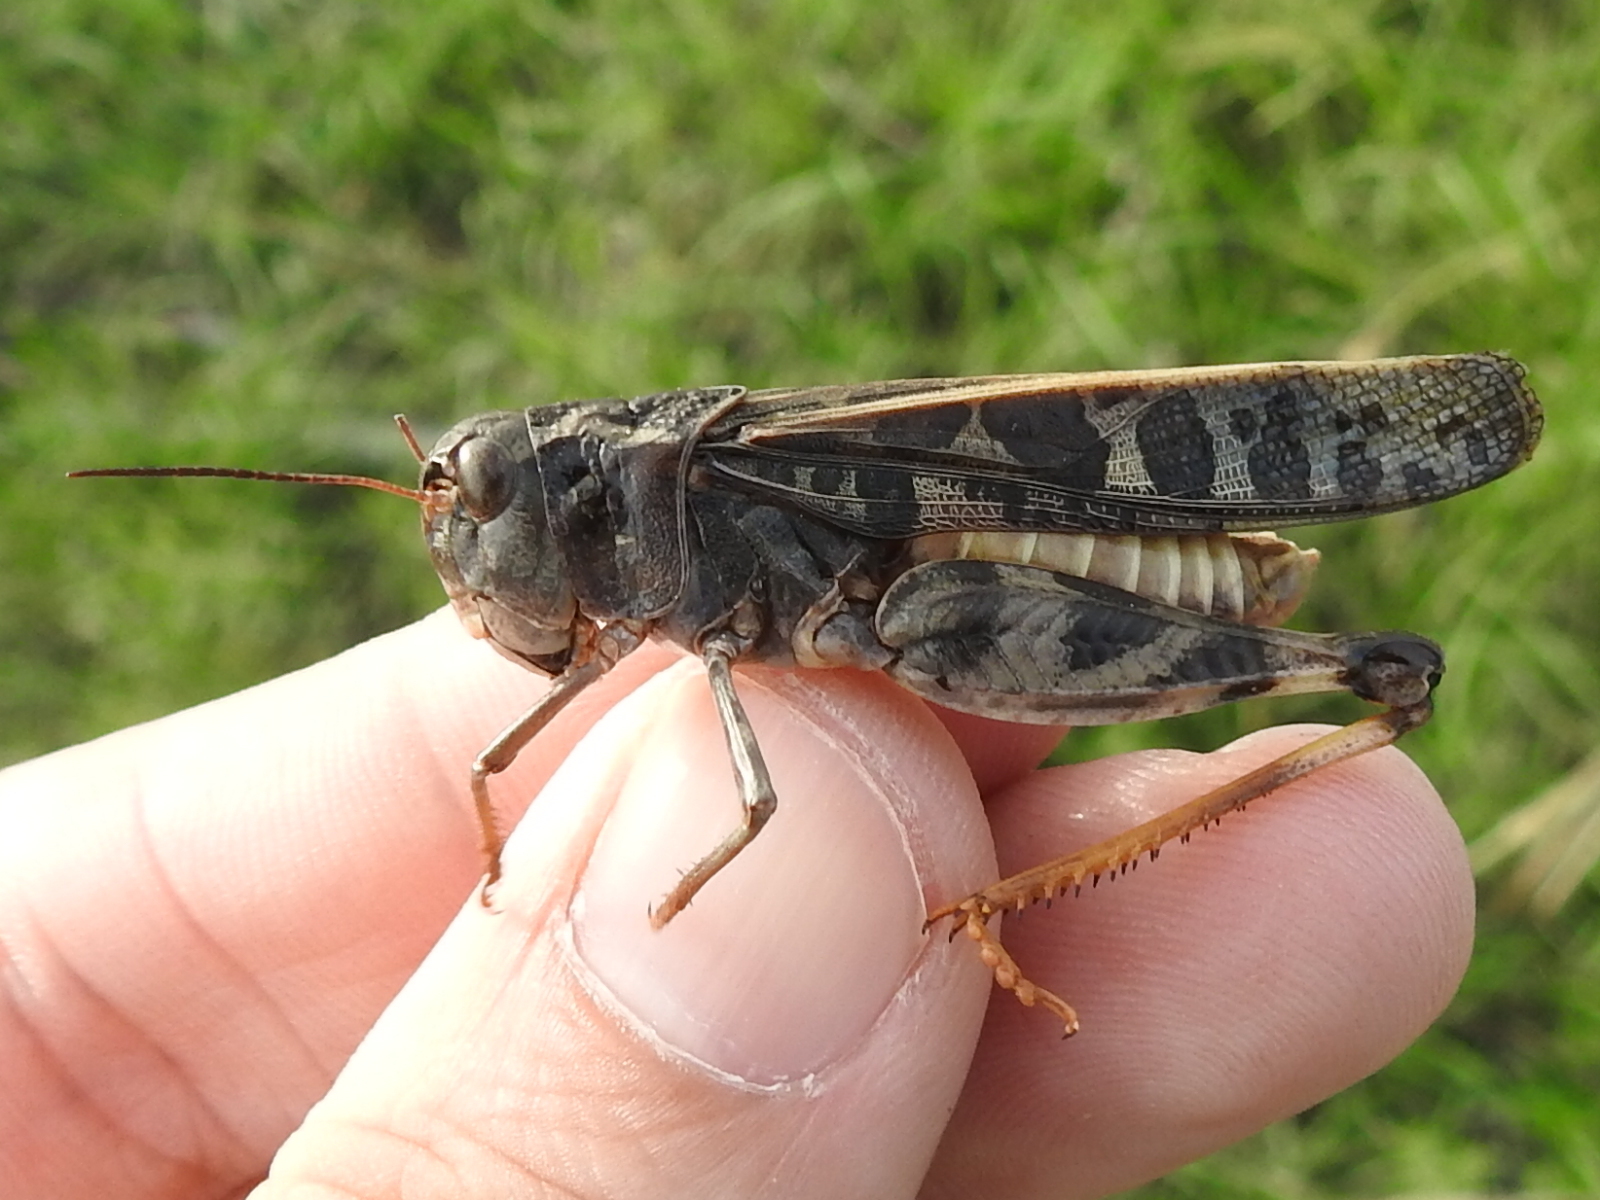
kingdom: Animalia
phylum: Arthropoda
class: Insecta
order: Orthoptera
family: Acrididae
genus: Hippiscus
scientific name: Hippiscus ocelote
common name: Wrinkled grasshopper
